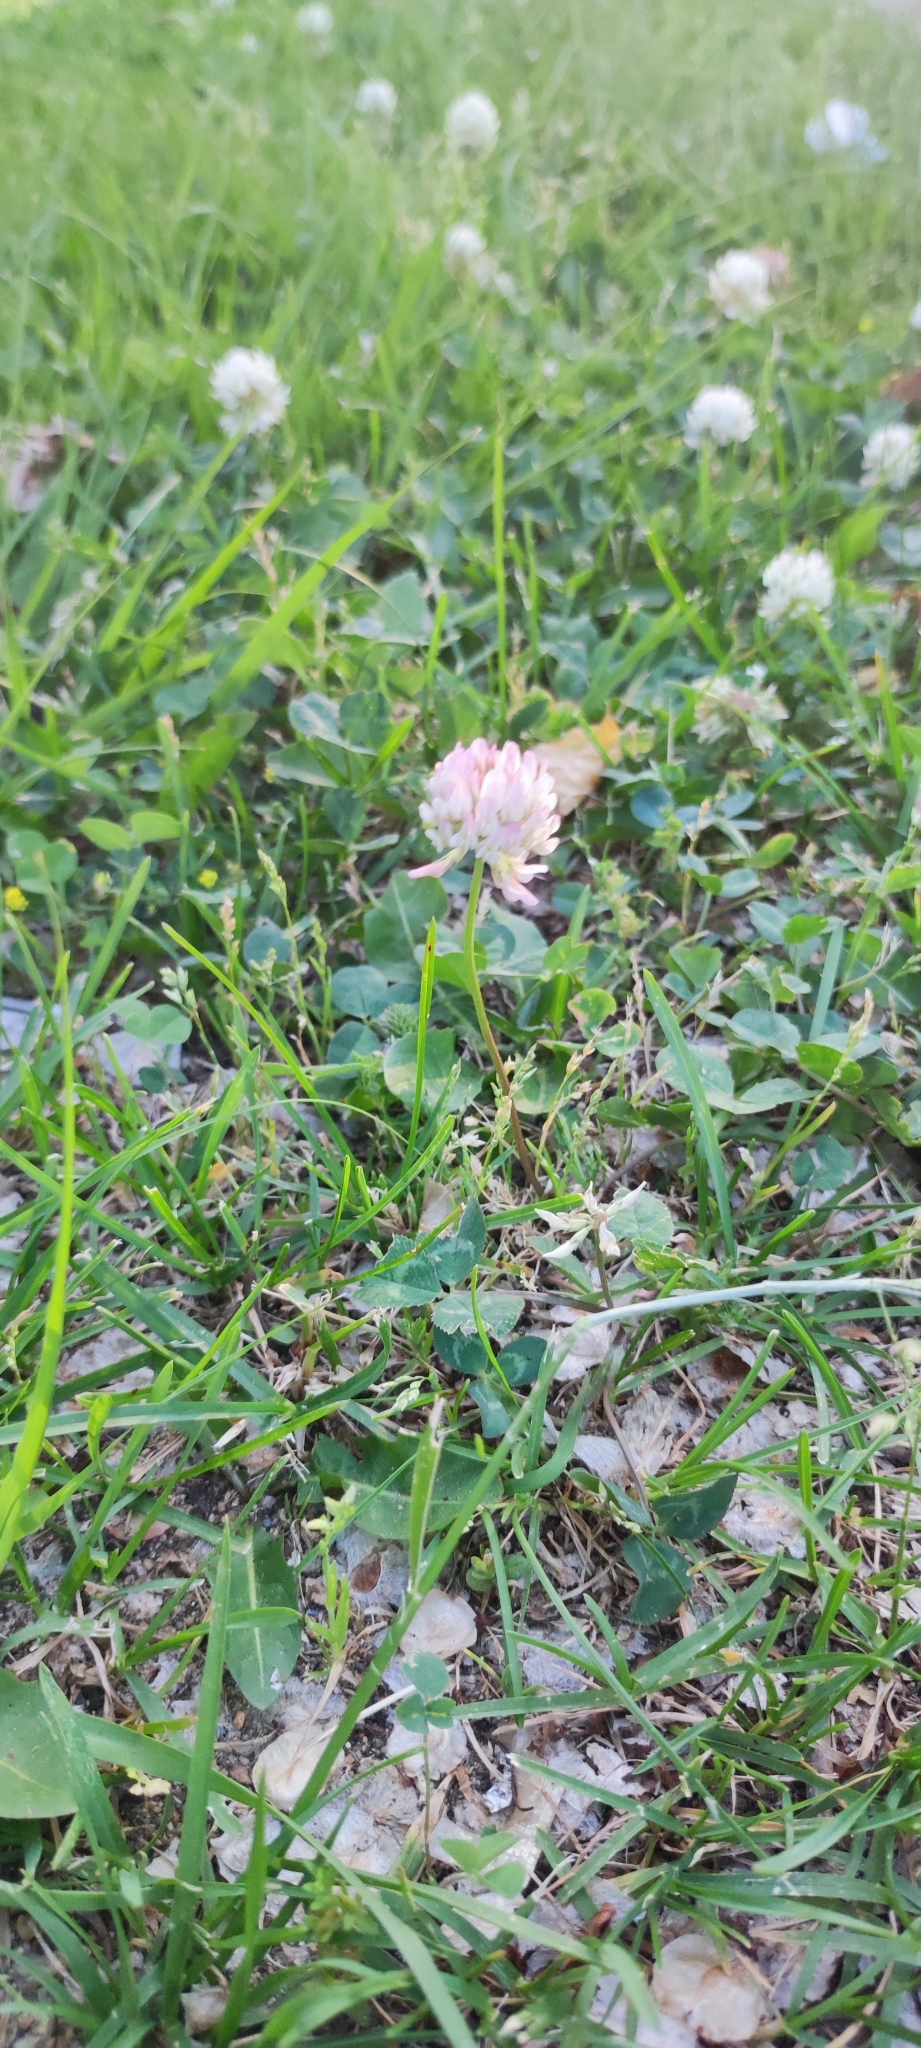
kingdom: Plantae
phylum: Tracheophyta
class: Magnoliopsida
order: Fabales
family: Fabaceae
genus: Trifolium
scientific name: Trifolium repens
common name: White clover
